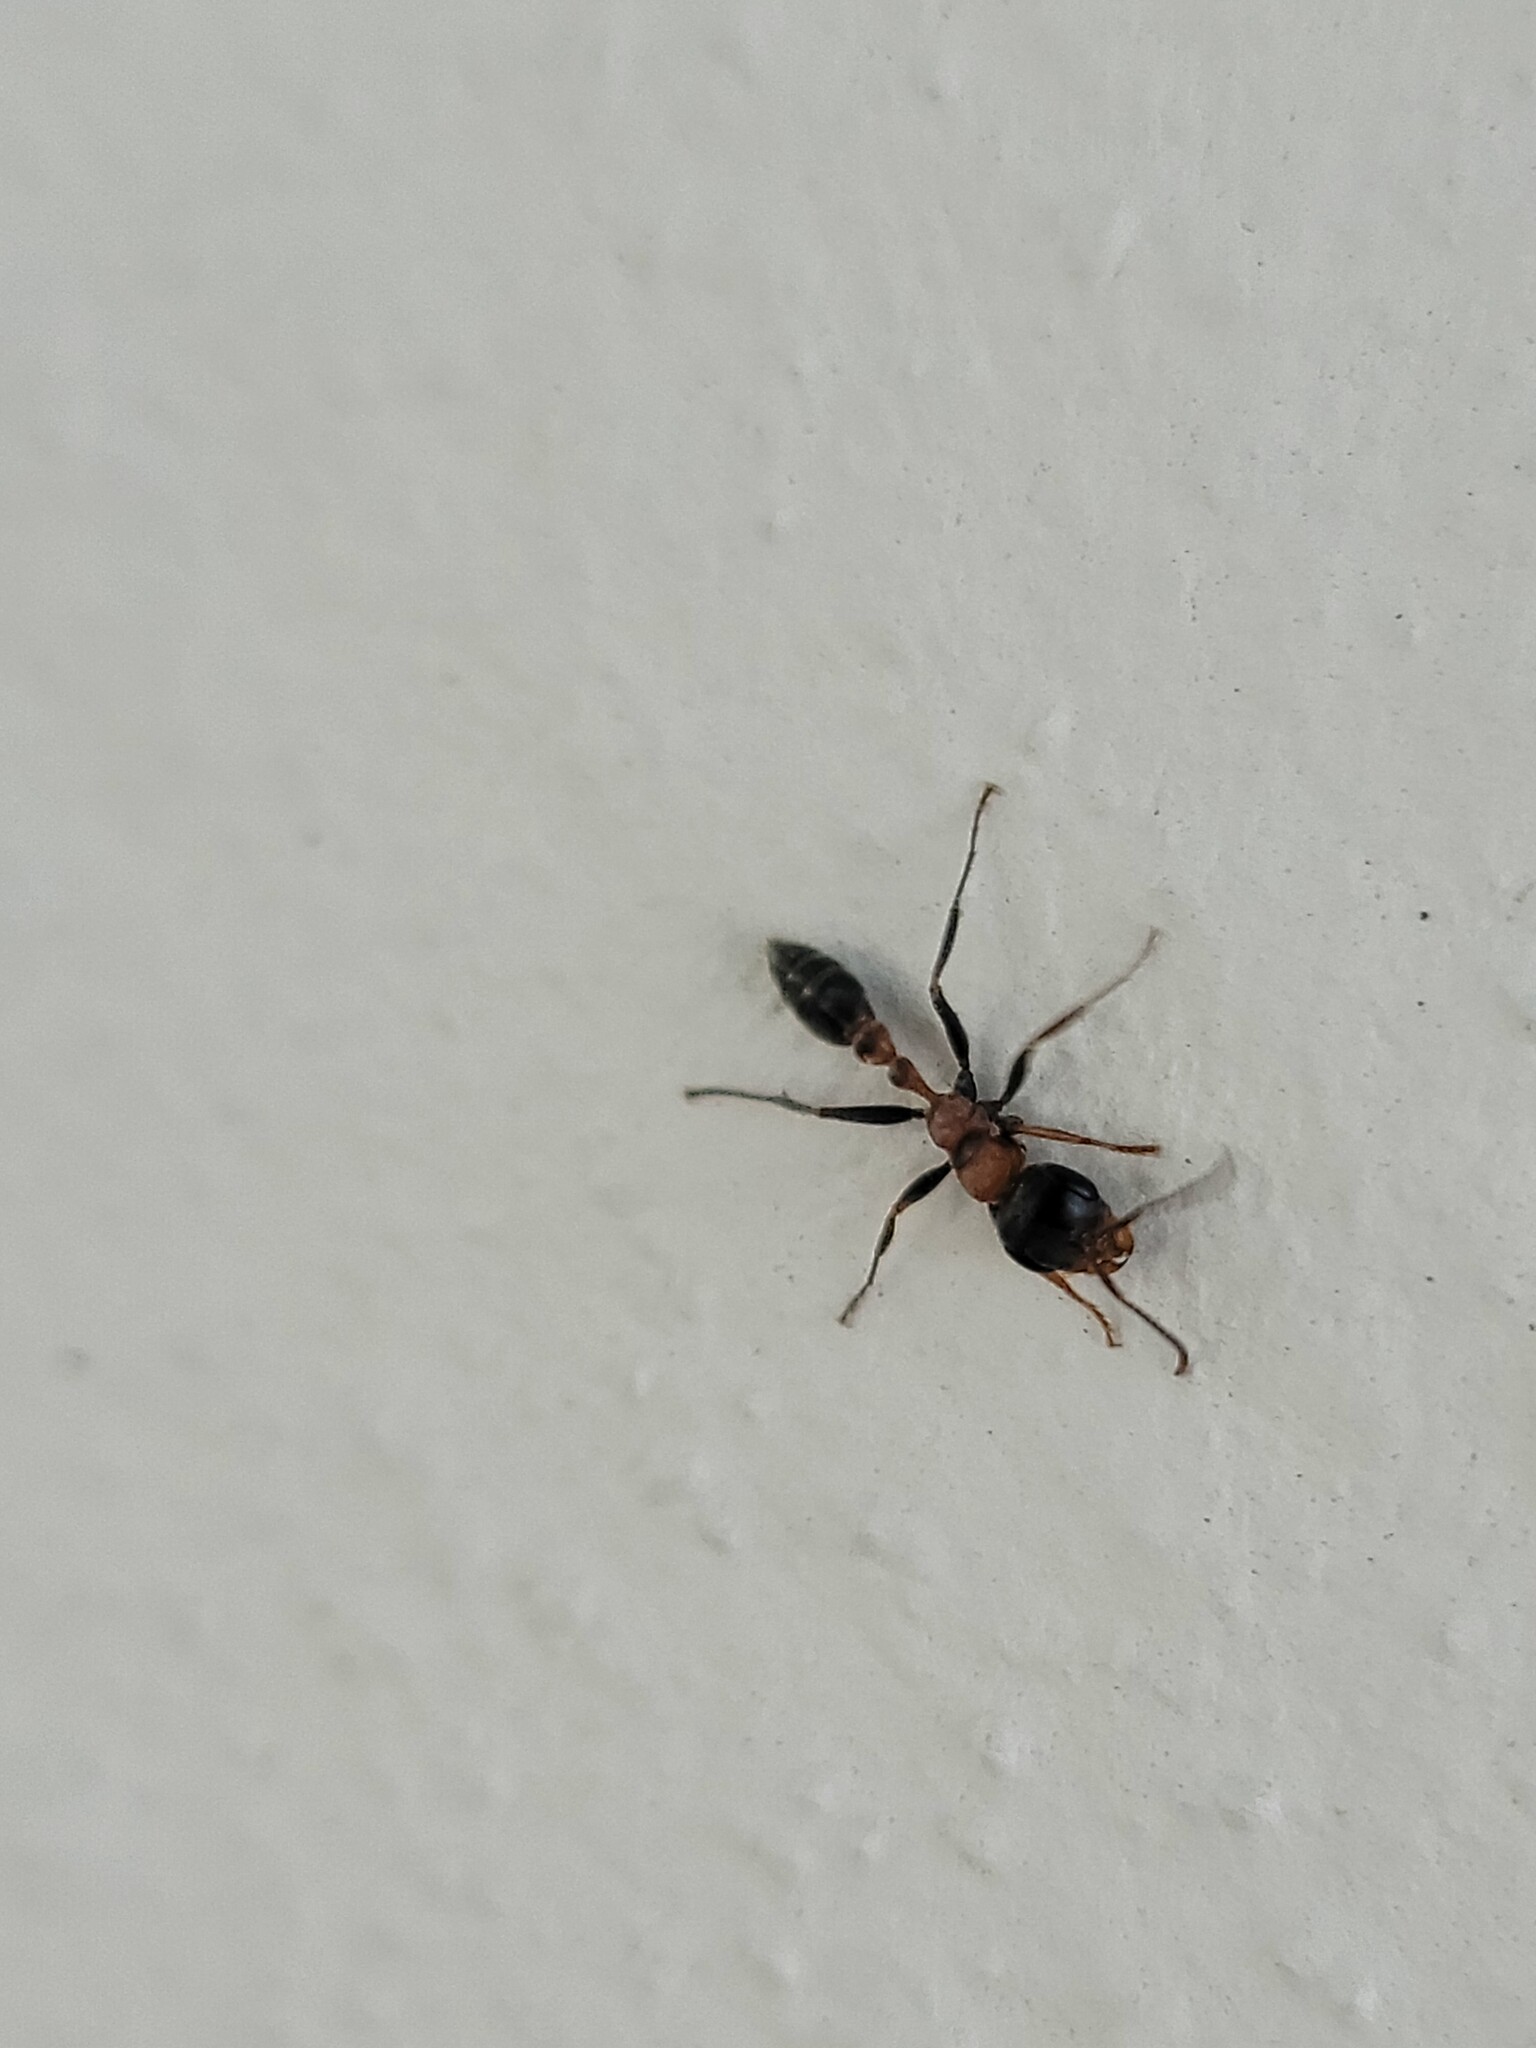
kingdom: Animalia
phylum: Arthropoda
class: Insecta
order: Hymenoptera
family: Formicidae
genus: Pseudomyrmex
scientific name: Pseudomyrmex gracilis
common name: Graceful twig ant
